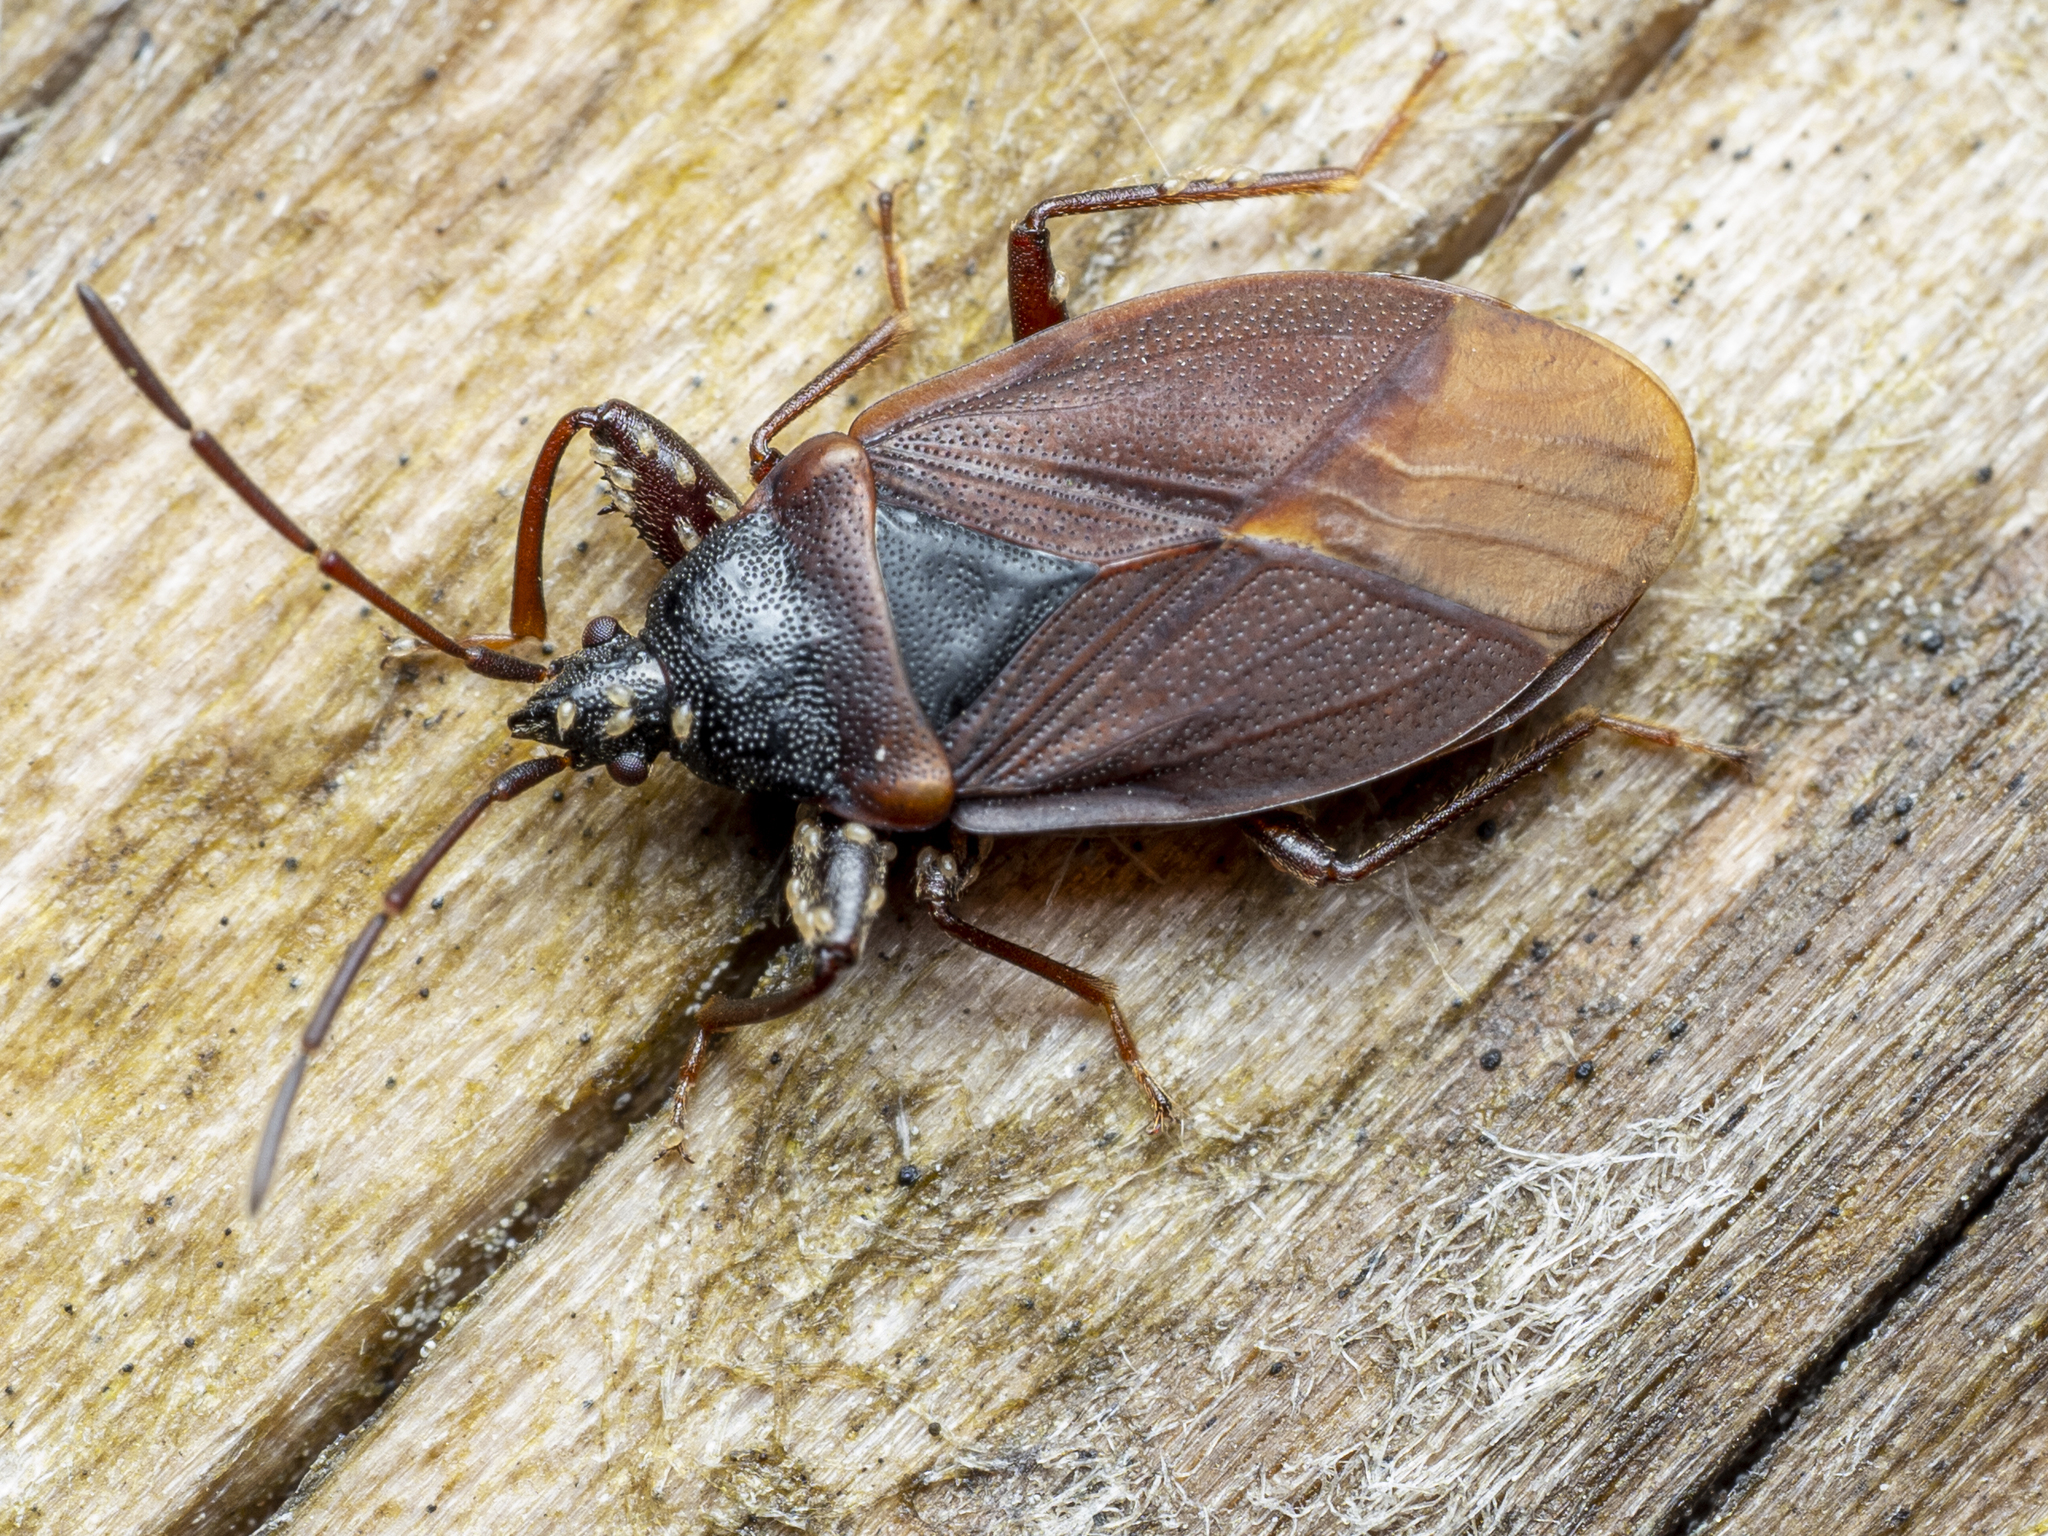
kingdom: Animalia
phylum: Arthropoda
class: Insecta
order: Hemiptera
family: Rhyparochromidae
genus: Gastrodes
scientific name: Gastrodes grossipes
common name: Pine cone bug
